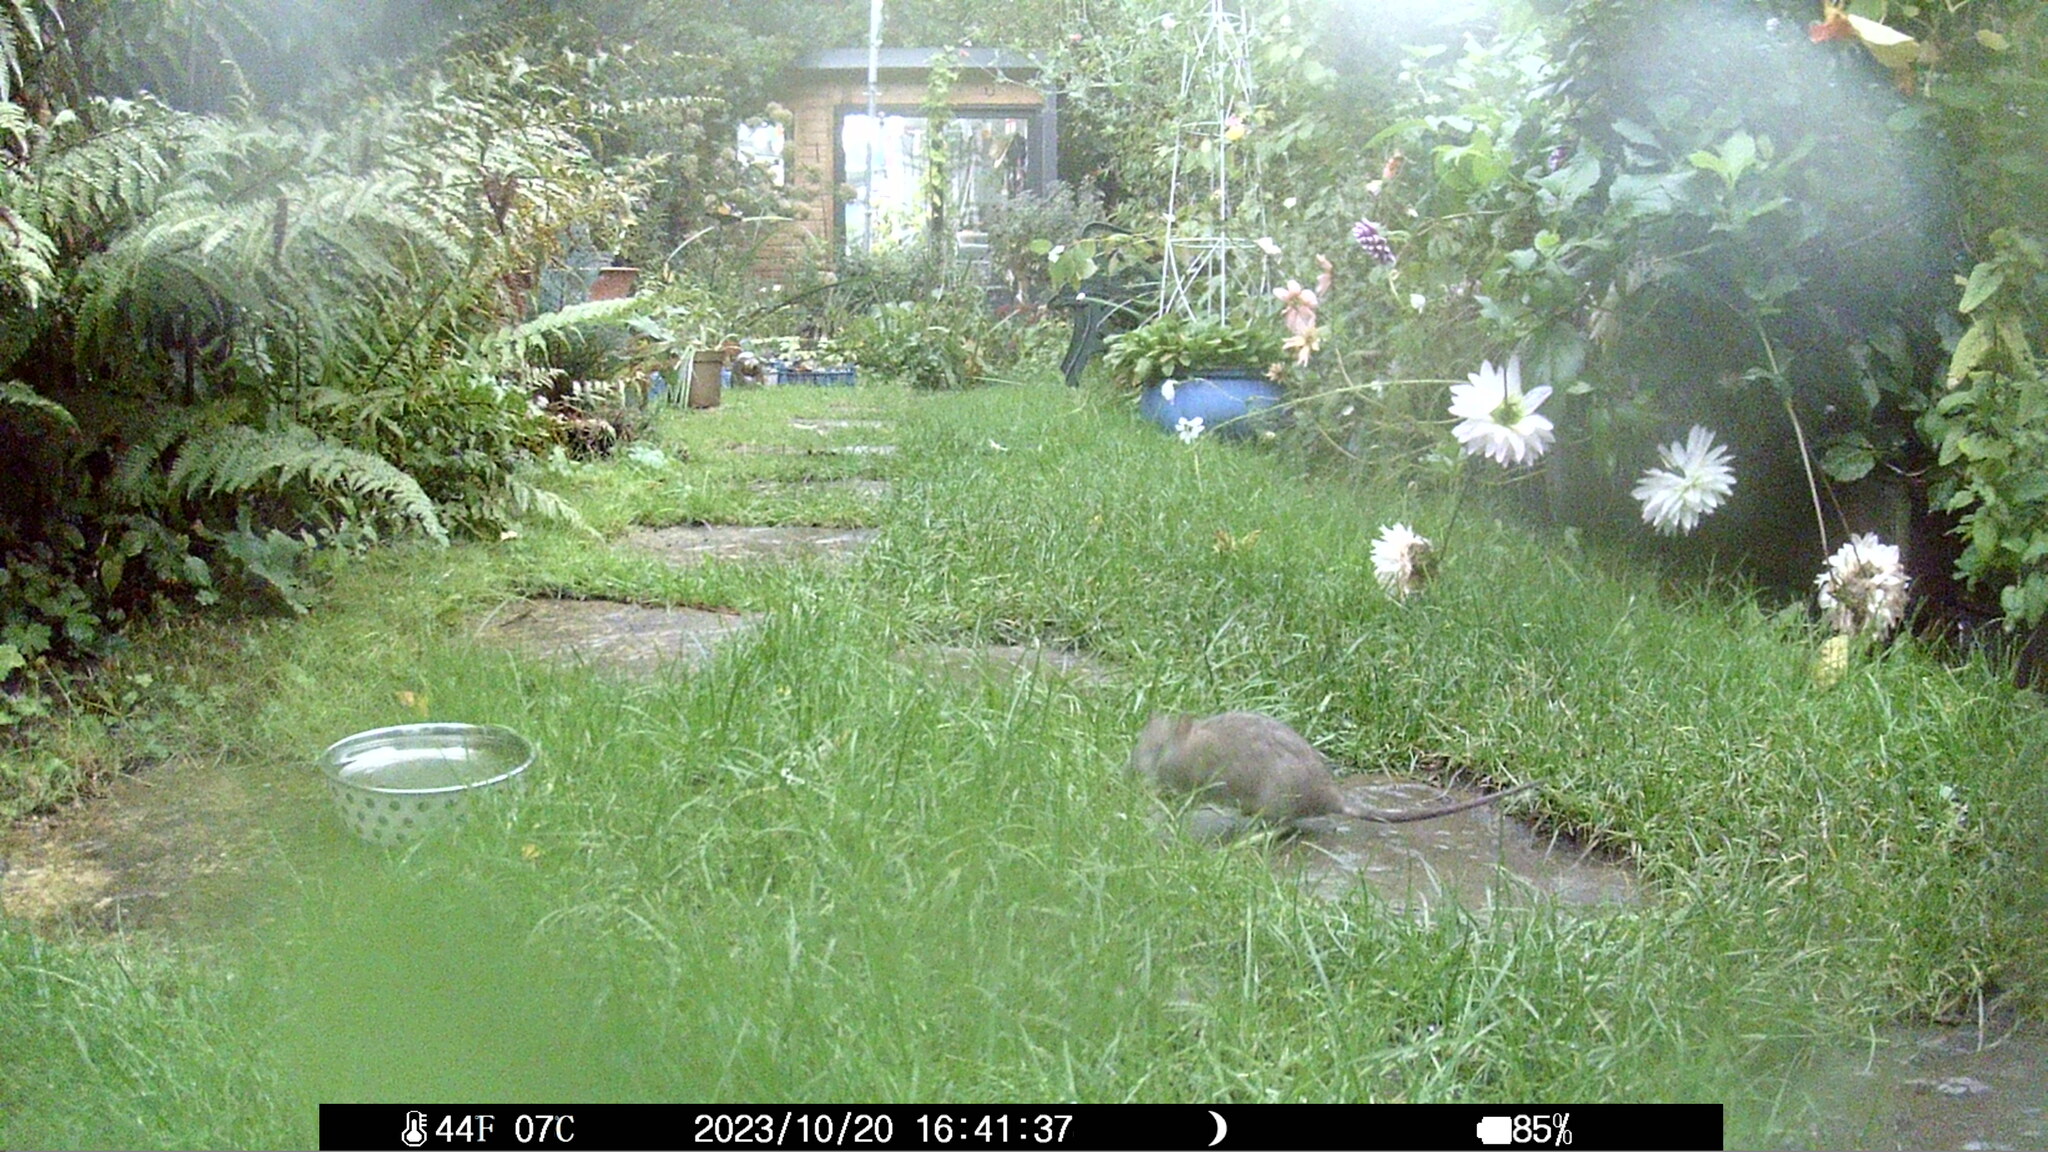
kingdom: Animalia
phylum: Chordata
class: Mammalia
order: Rodentia
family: Muridae
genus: Rattus
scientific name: Rattus norvegicus
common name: Brown rat
